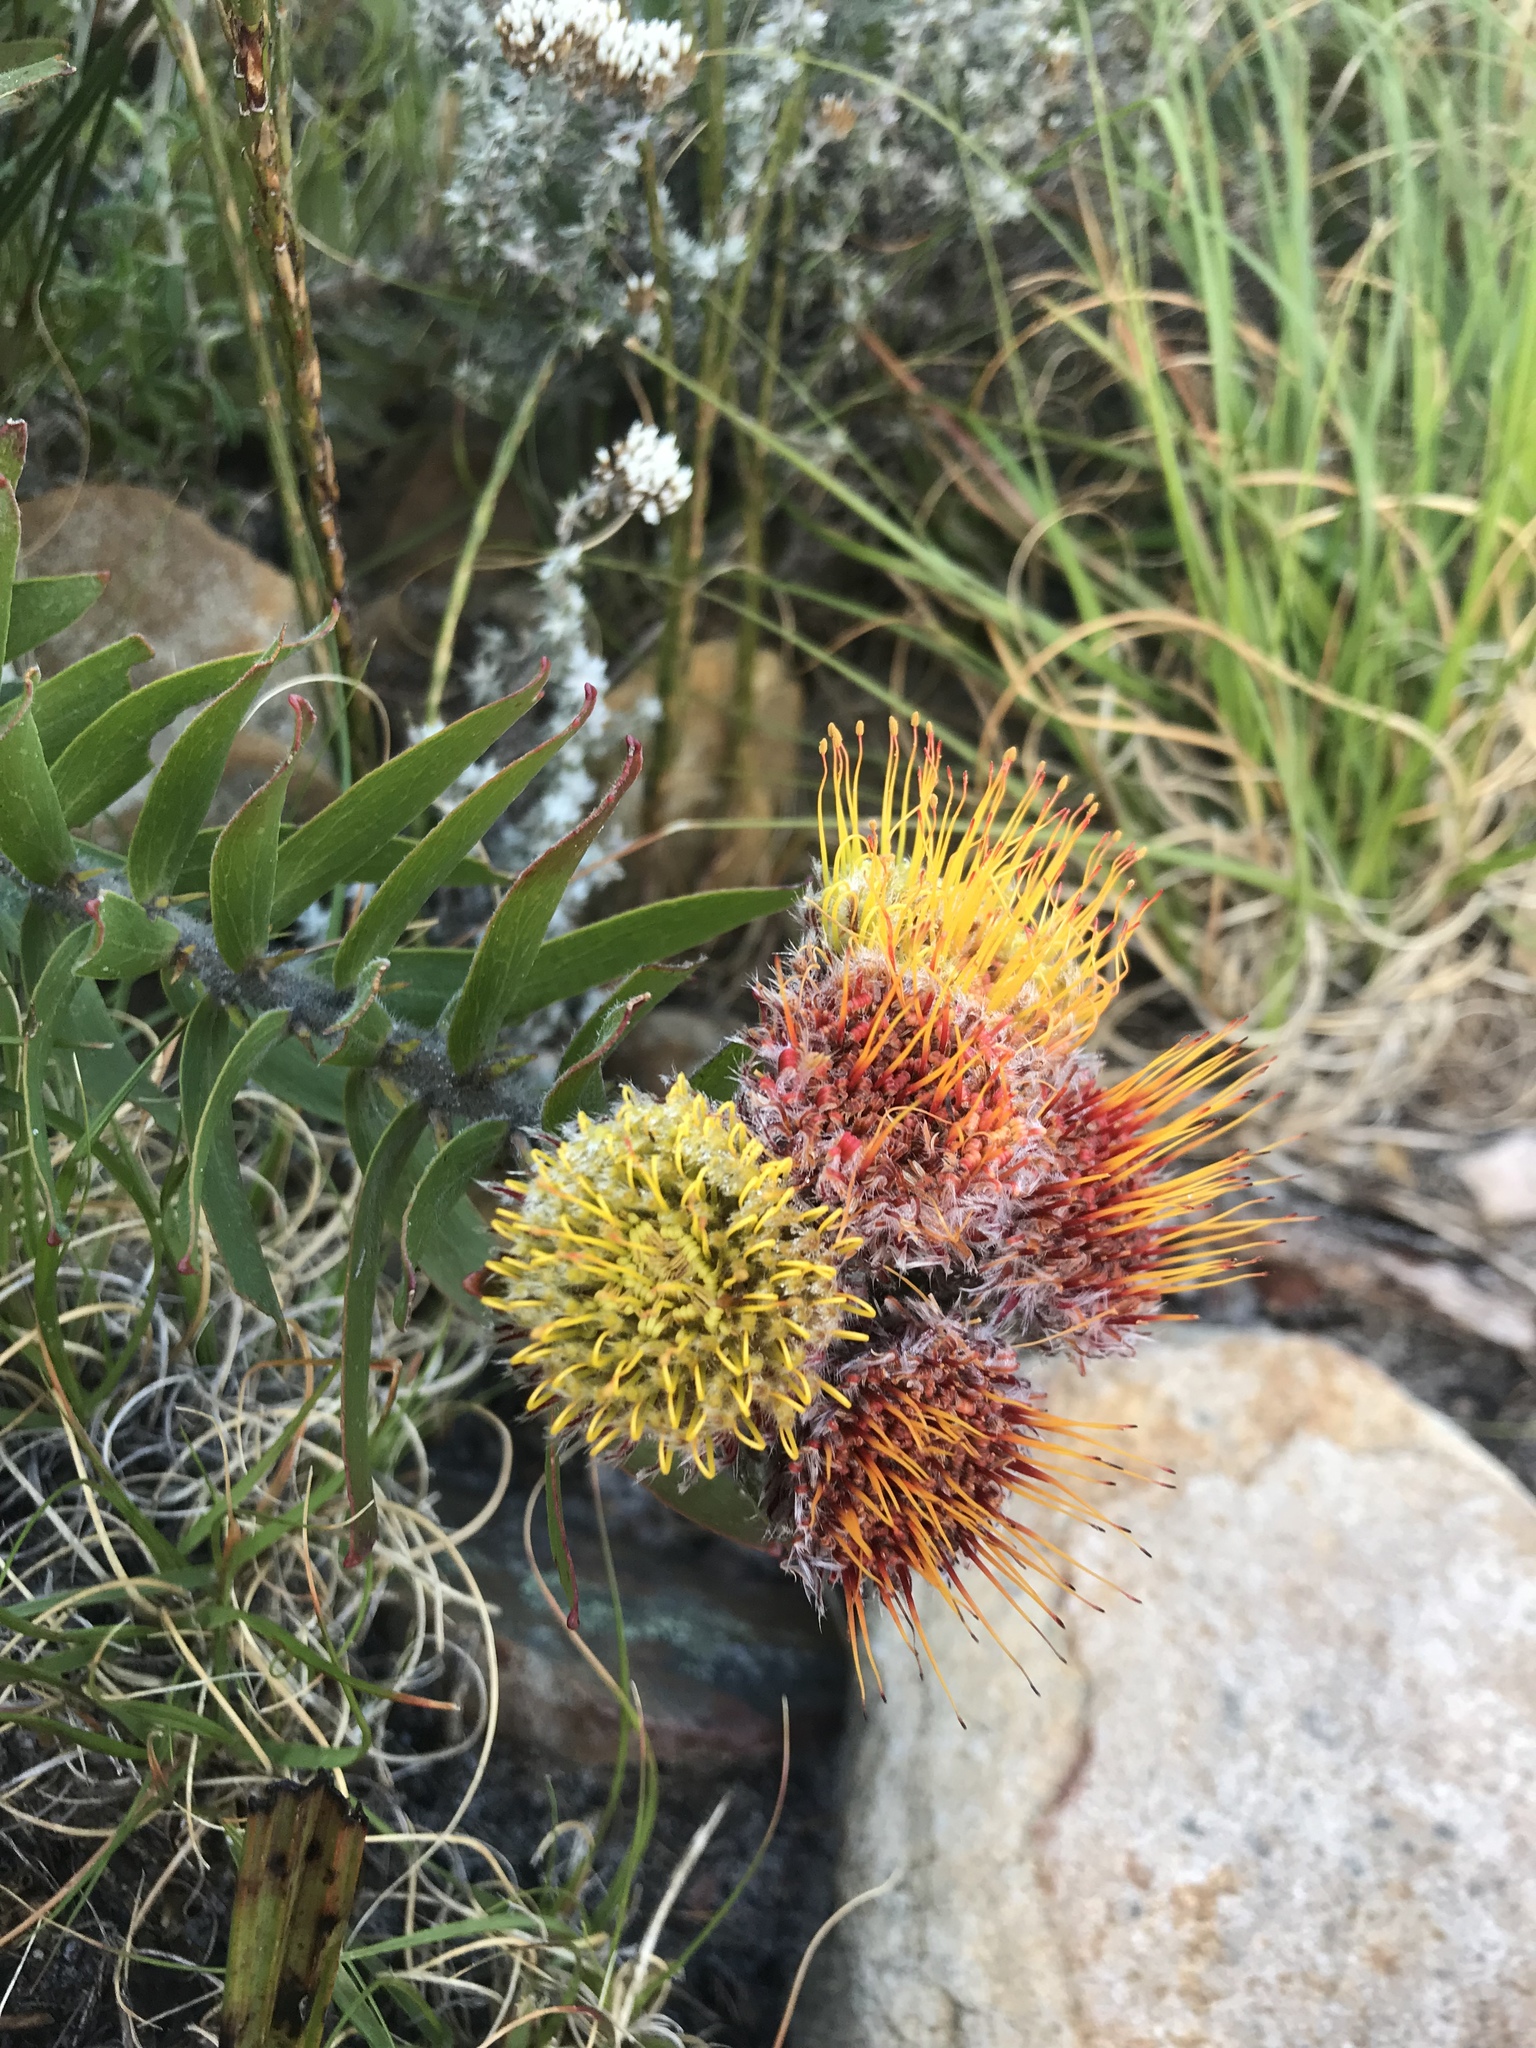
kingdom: Plantae
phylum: Tracheophyta
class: Magnoliopsida
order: Proteales
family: Proteaceae
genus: Leucospermum
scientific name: Leucospermum oleifolium
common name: Matches
